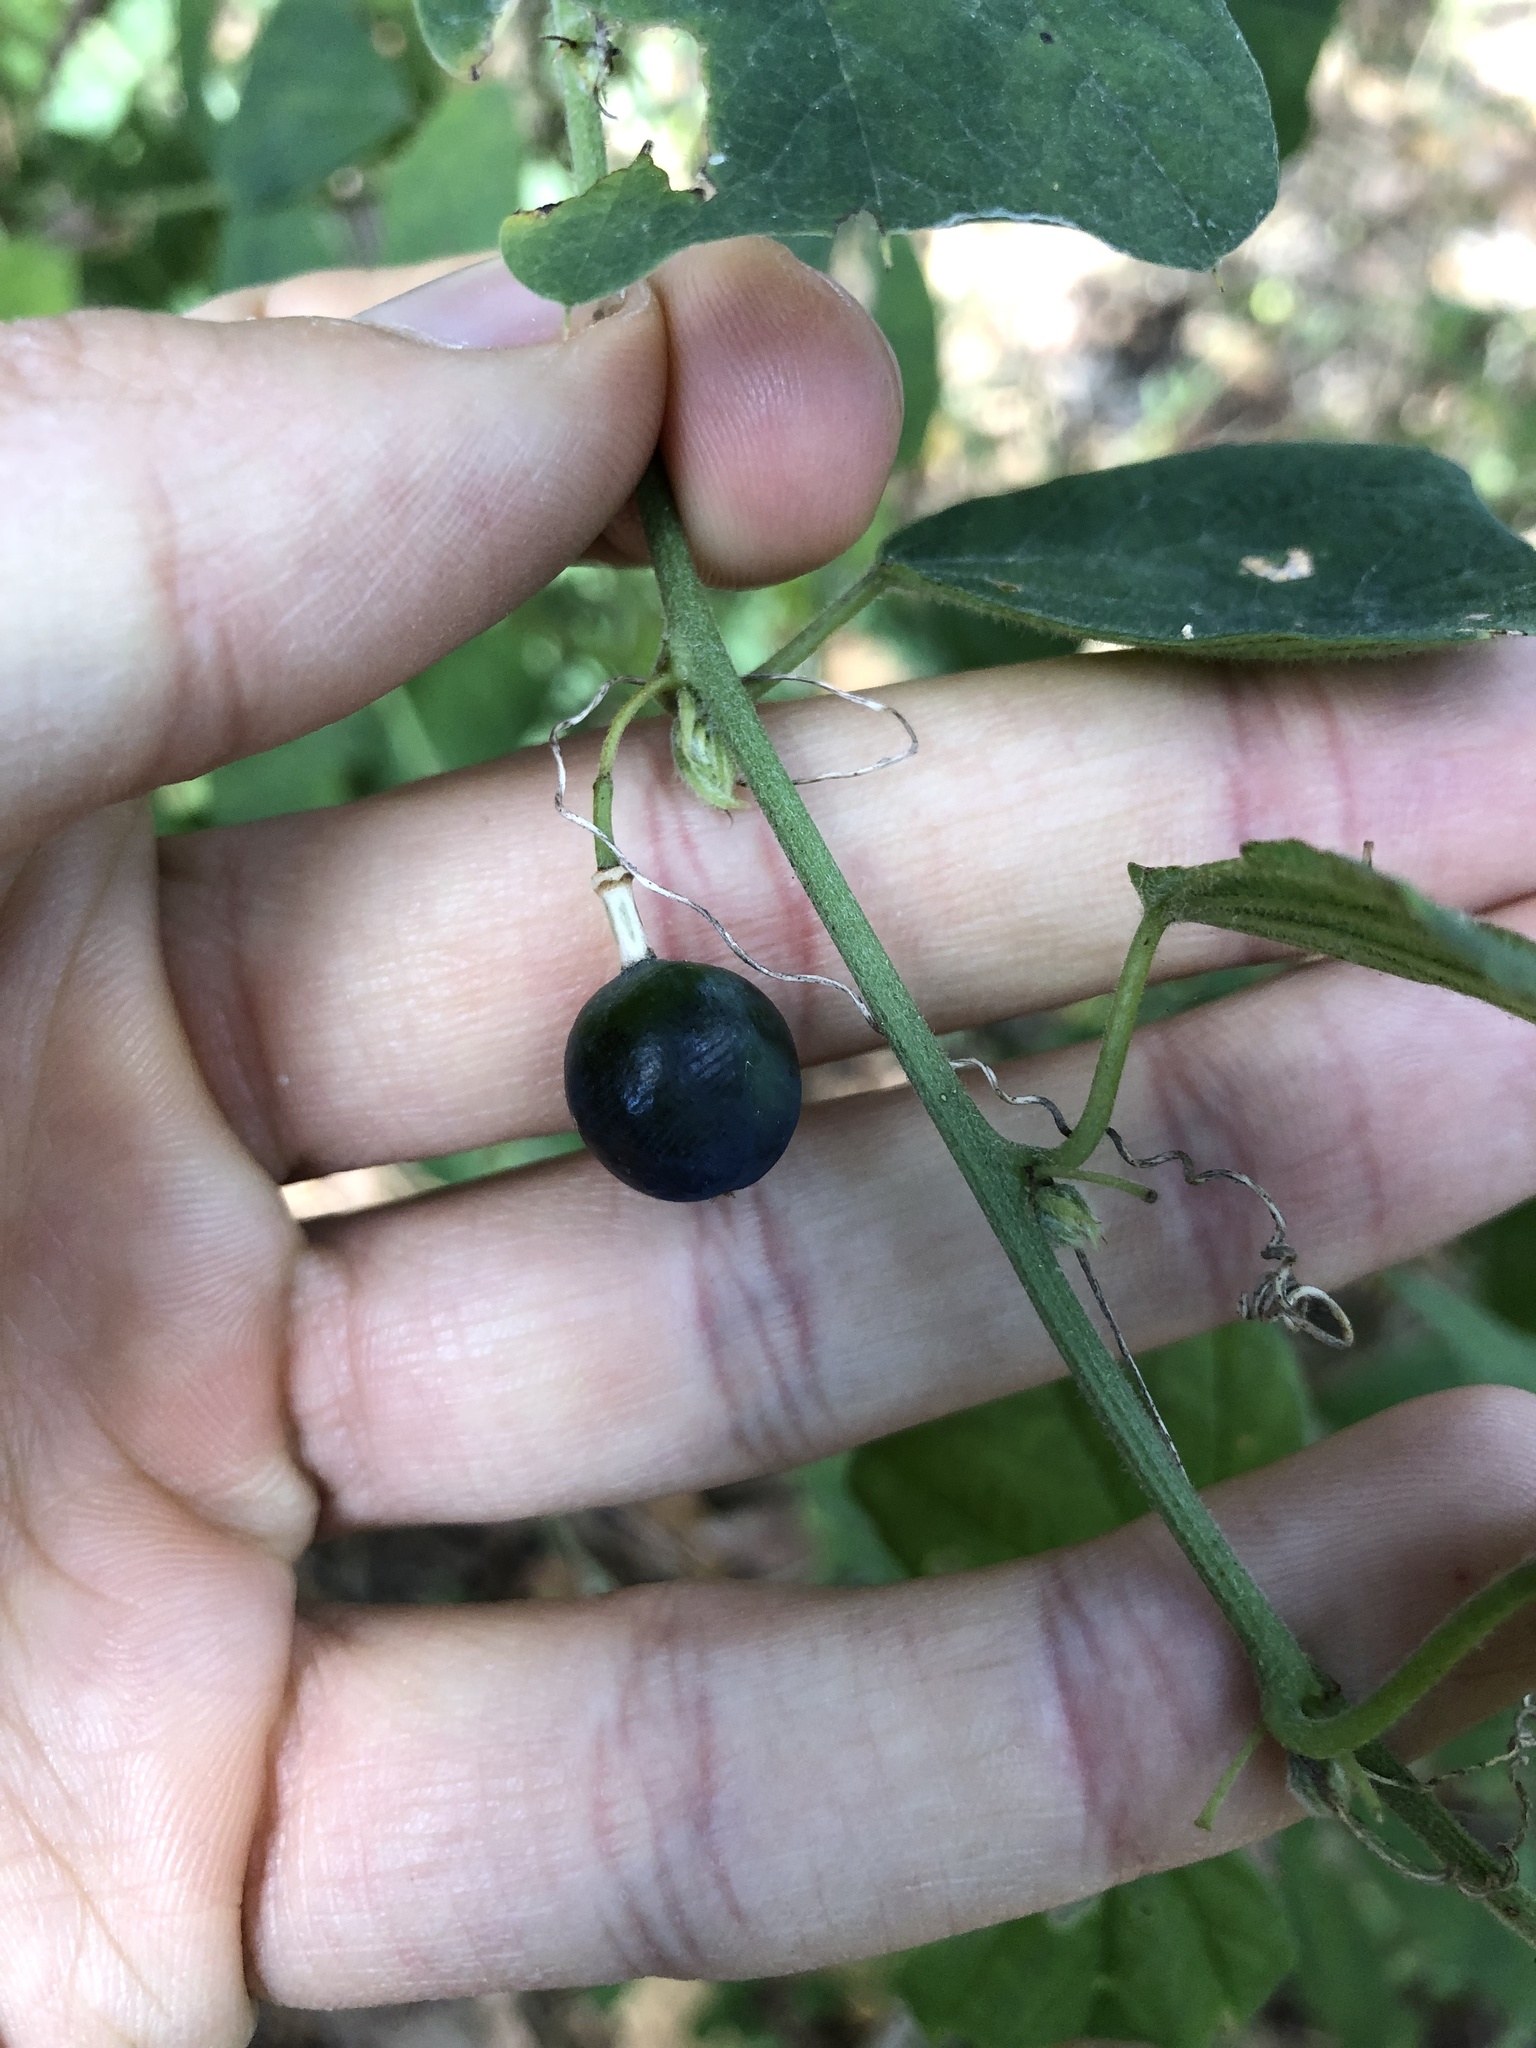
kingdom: Plantae
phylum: Tracheophyta
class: Magnoliopsida
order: Malpighiales
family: Passifloraceae
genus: Passiflora
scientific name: Passiflora biflora
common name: Twoflower passionflower
